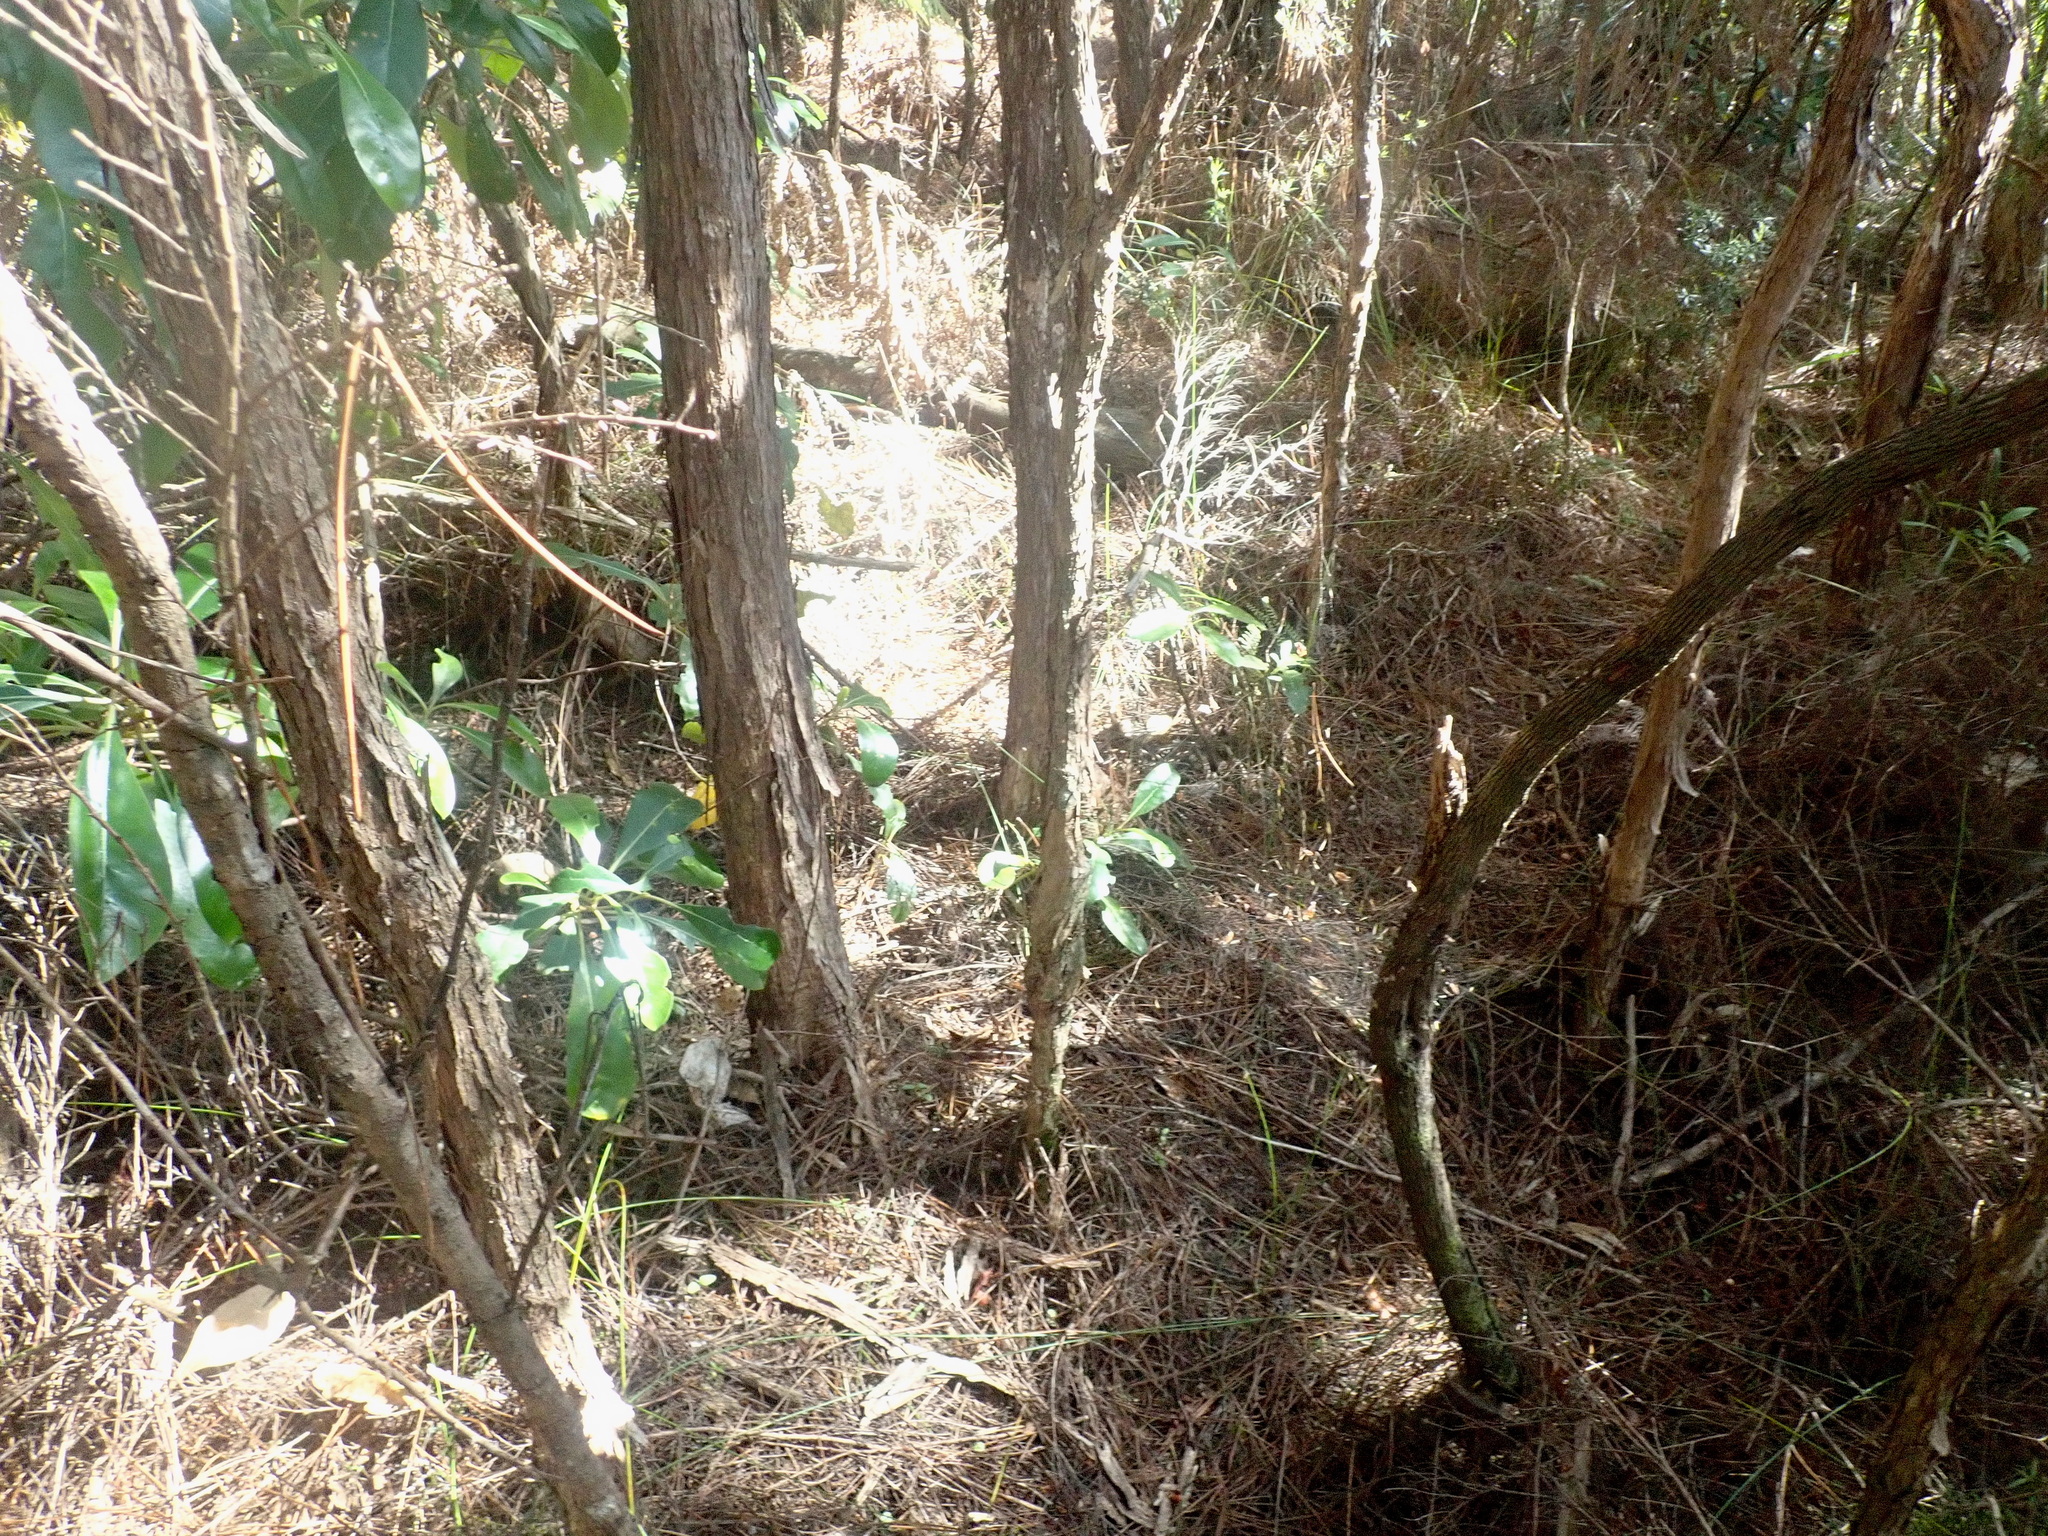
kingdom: Plantae
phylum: Tracheophyta
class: Magnoliopsida
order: Gentianales
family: Rubiaceae
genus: Coprosma
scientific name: Coprosma lucida
